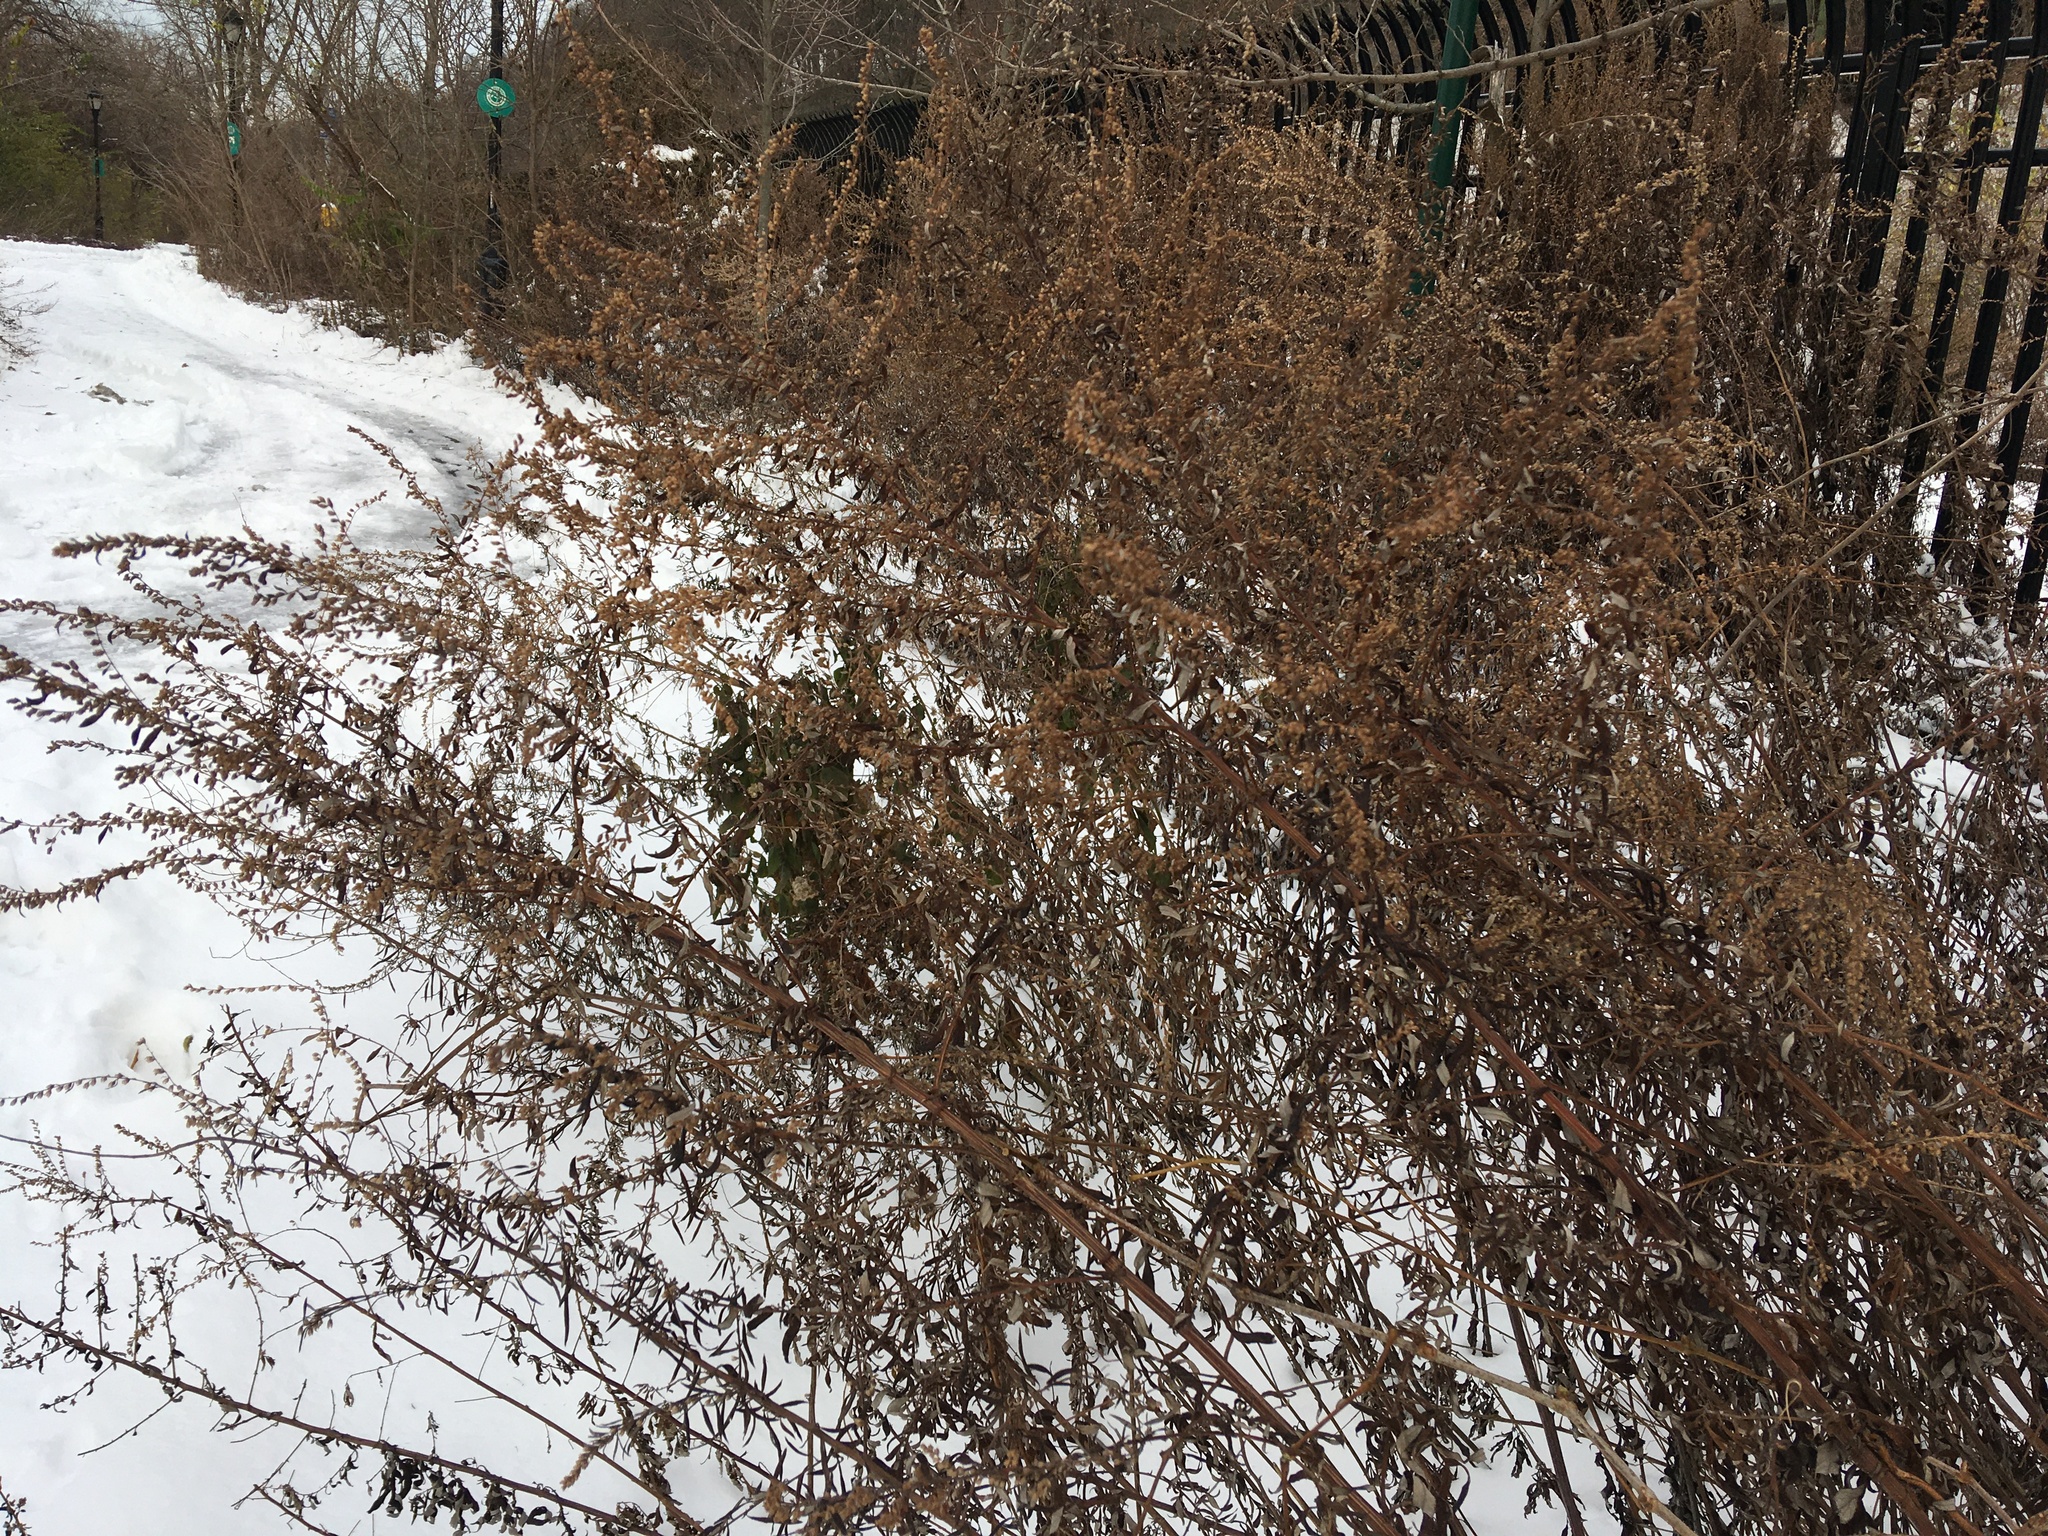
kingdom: Plantae
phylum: Tracheophyta
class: Magnoliopsida
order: Asterales
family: Asteraceae
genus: Artemisia
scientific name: Artemisia vulgaris
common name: Mugwort
